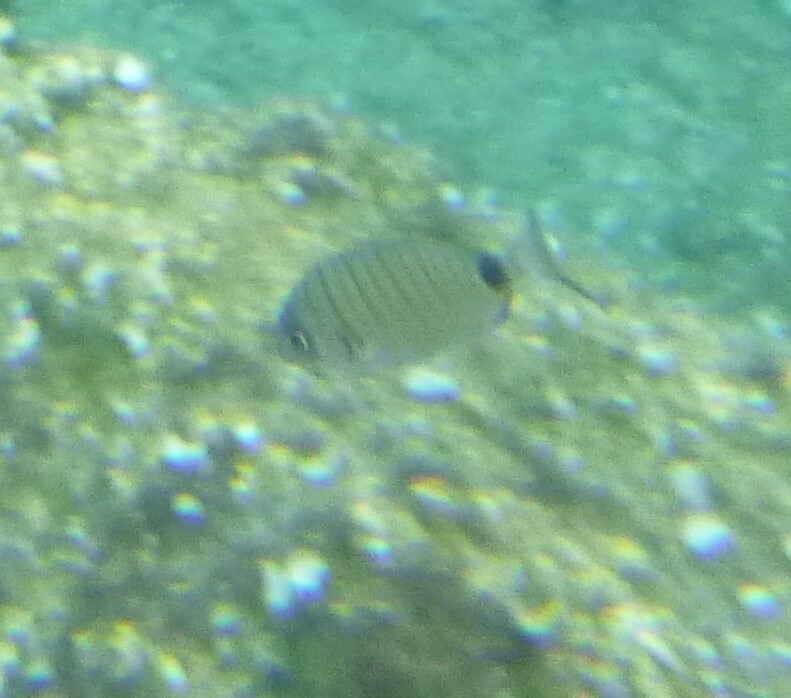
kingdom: Animalia
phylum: Chordata
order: Perciformes
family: Sparidae
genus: Diplodus
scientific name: Diplodus sargus
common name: White seabream
